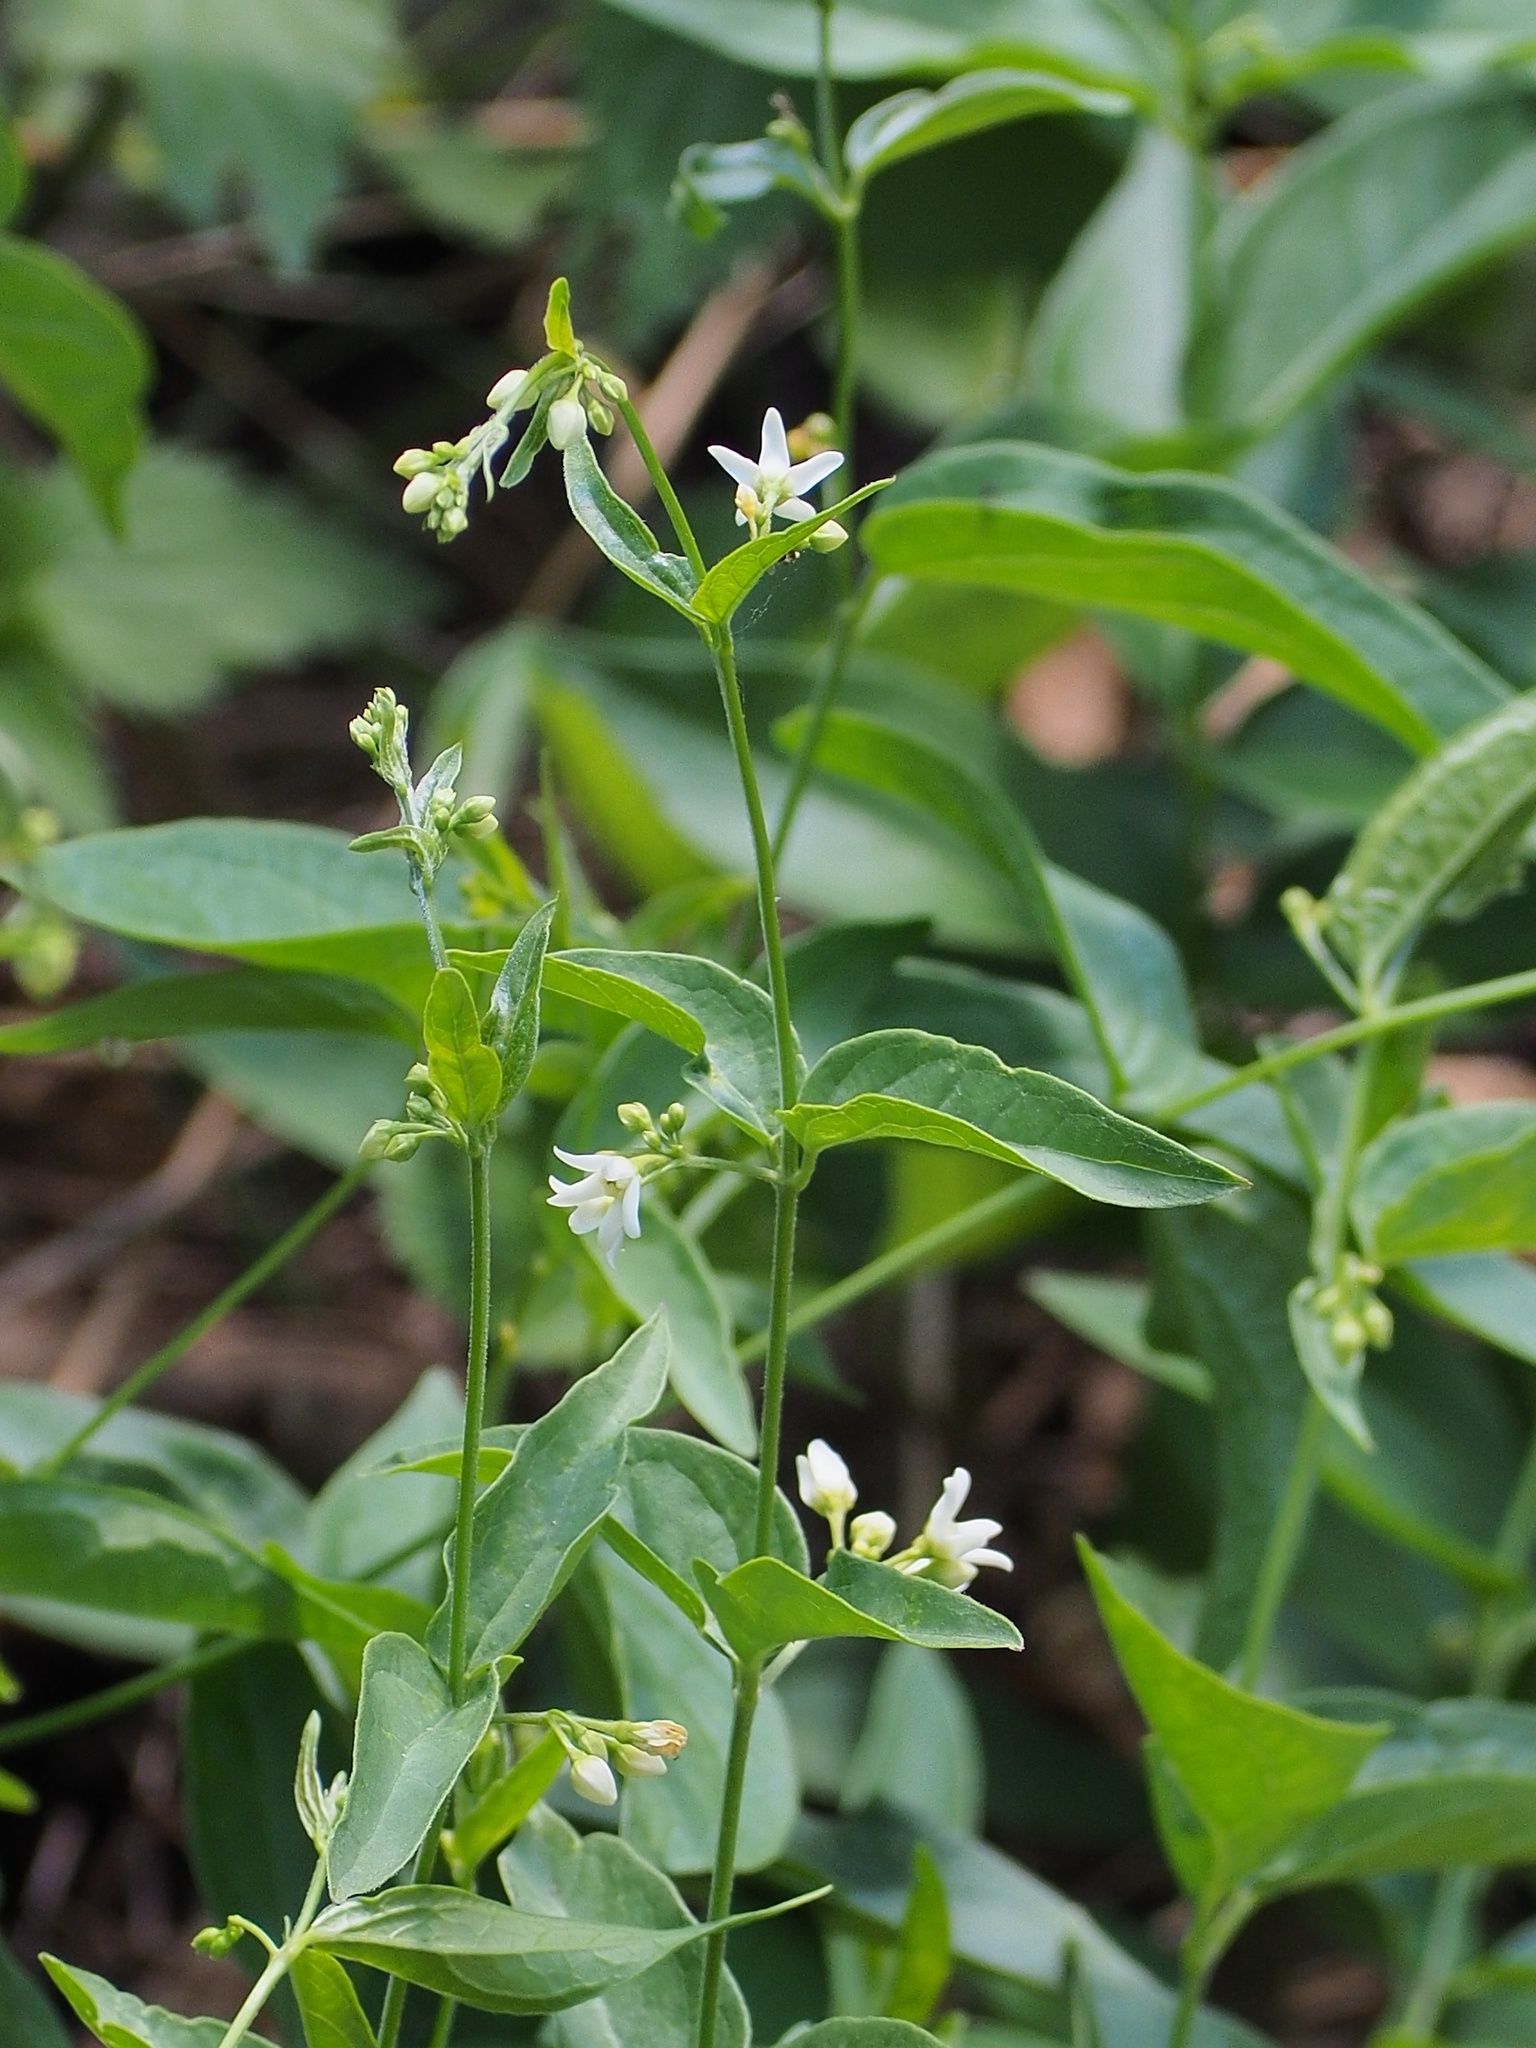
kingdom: Plantae
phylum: Tracheophyta
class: Magnoliopsida
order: Gentianales
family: Apocynaceae
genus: Vincetoxicum
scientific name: Vincetoxicum hirundinaria
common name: White swallowwort
